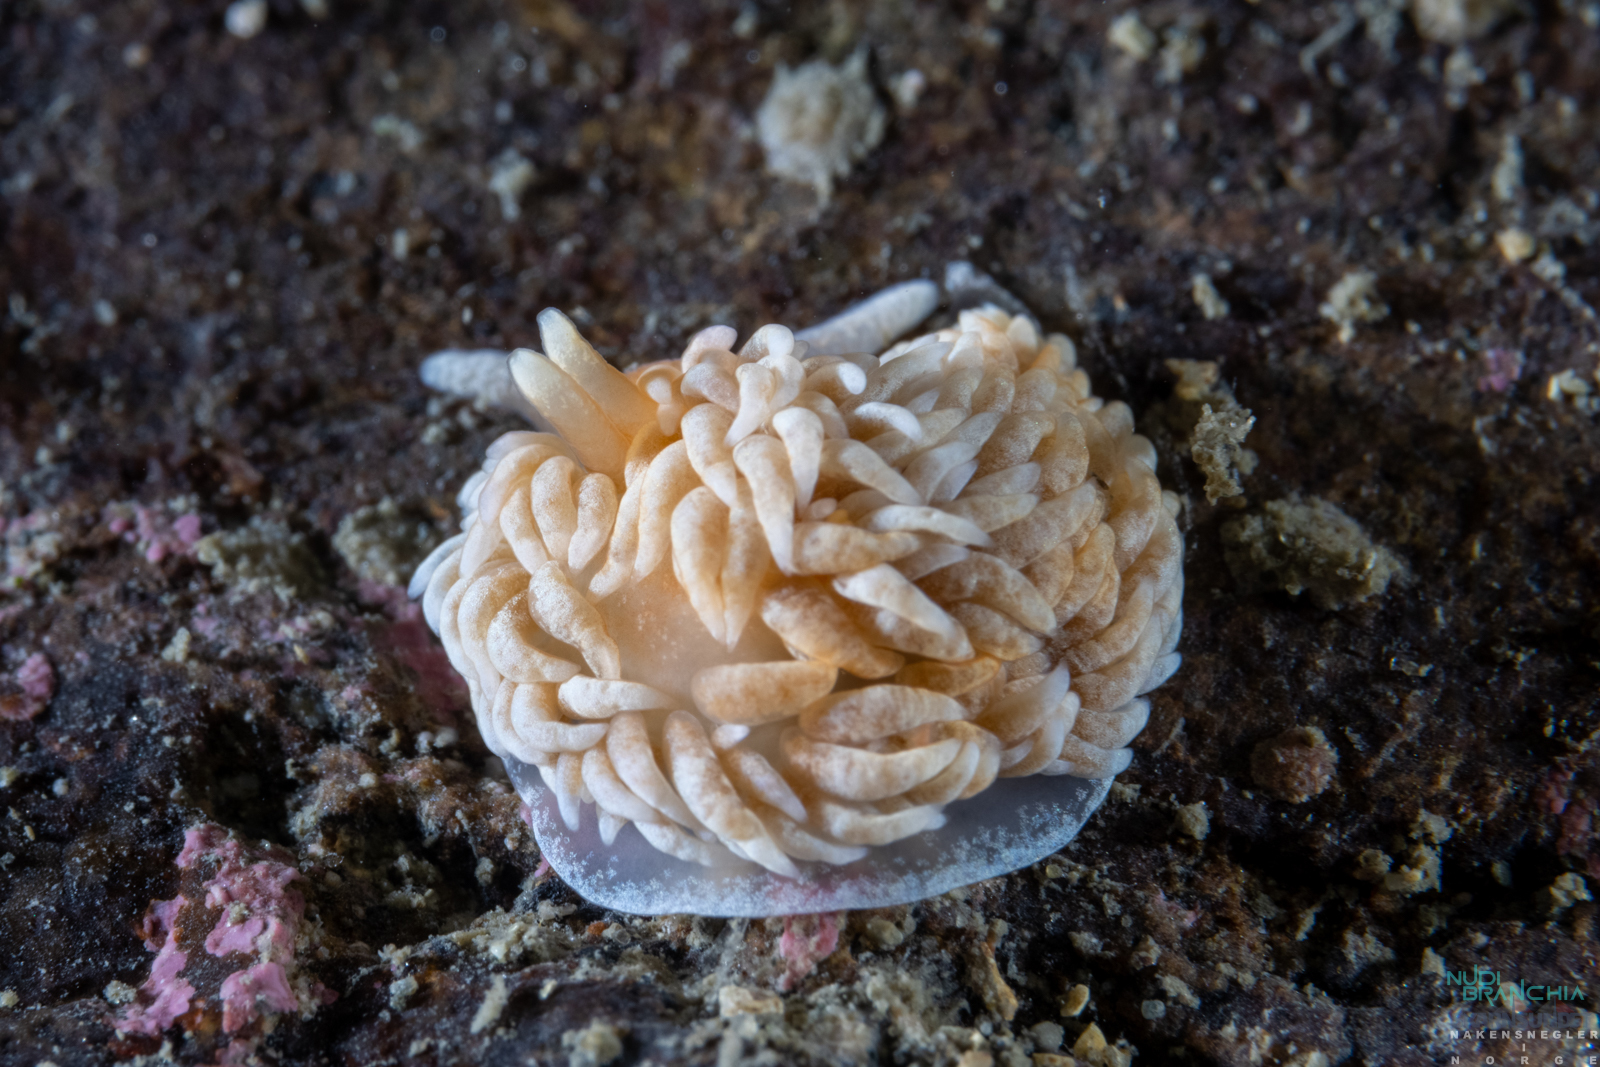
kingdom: Animalia
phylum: Mollusca
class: Gastropoda
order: Nudibranchia
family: Aeolidiidae
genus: Aeolidiella
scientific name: Aeolidiella glauca
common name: Orange-brown aeolid
